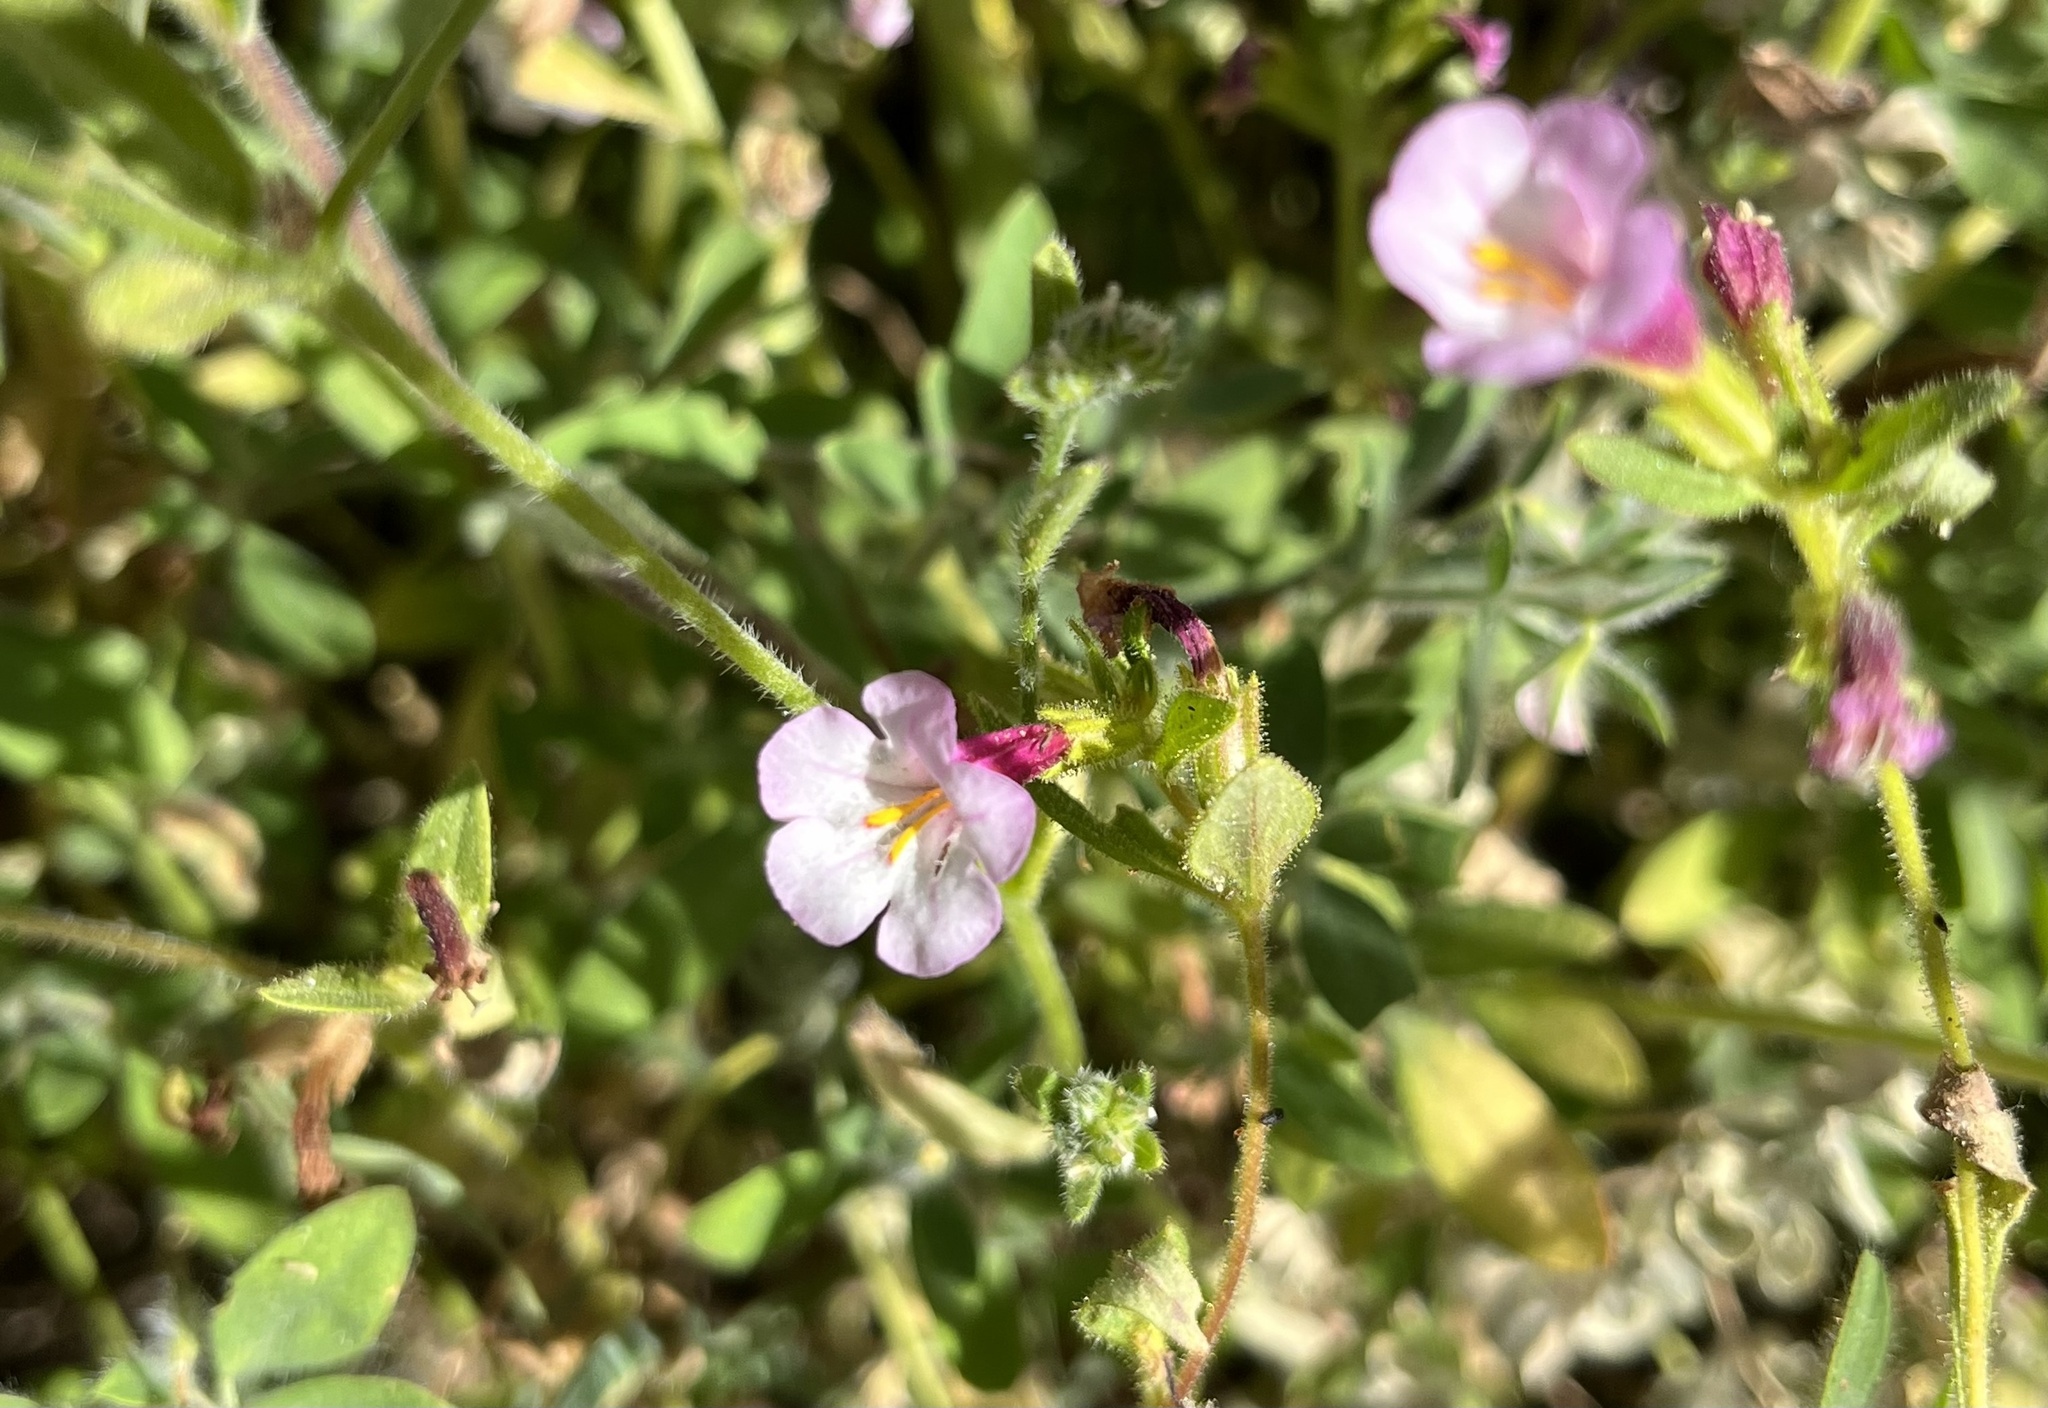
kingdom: Plantae
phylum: Tracheophyta
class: Magnoliopsida
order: Lamiales
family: Phrymaceae
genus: Diplacus
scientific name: Diplacus torreyi
